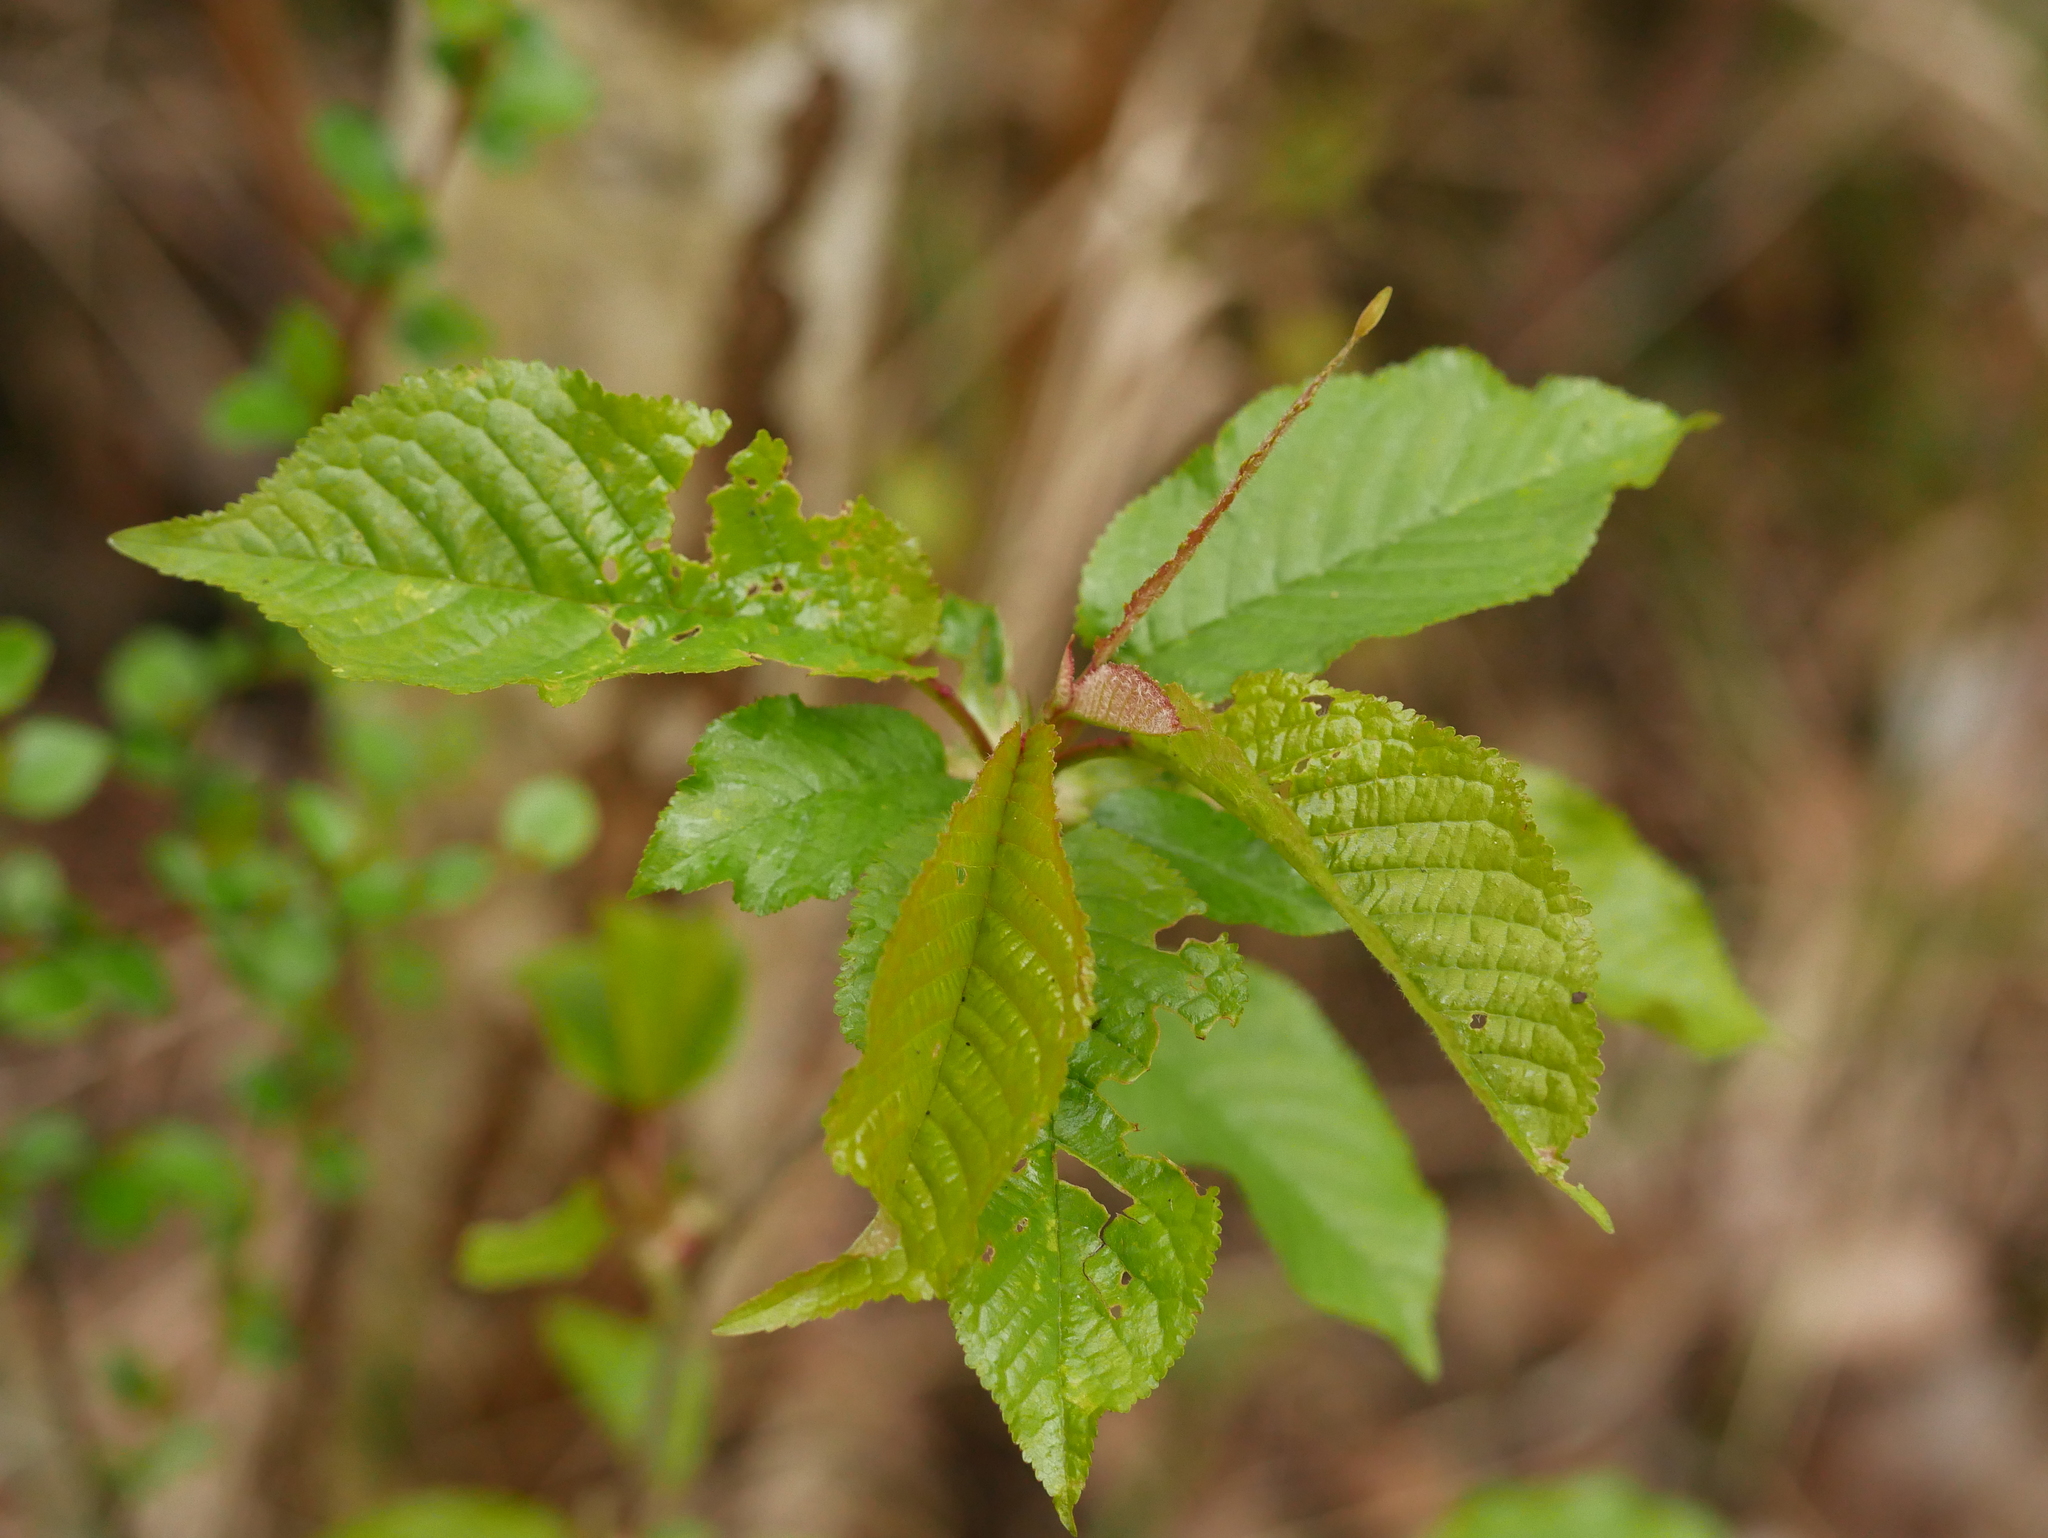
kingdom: Plantae
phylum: Tracheophyta
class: Magnoliopsida
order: Rosales
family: Rosaceae
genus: Prunus
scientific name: Prunus avium
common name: Sweet cherry
